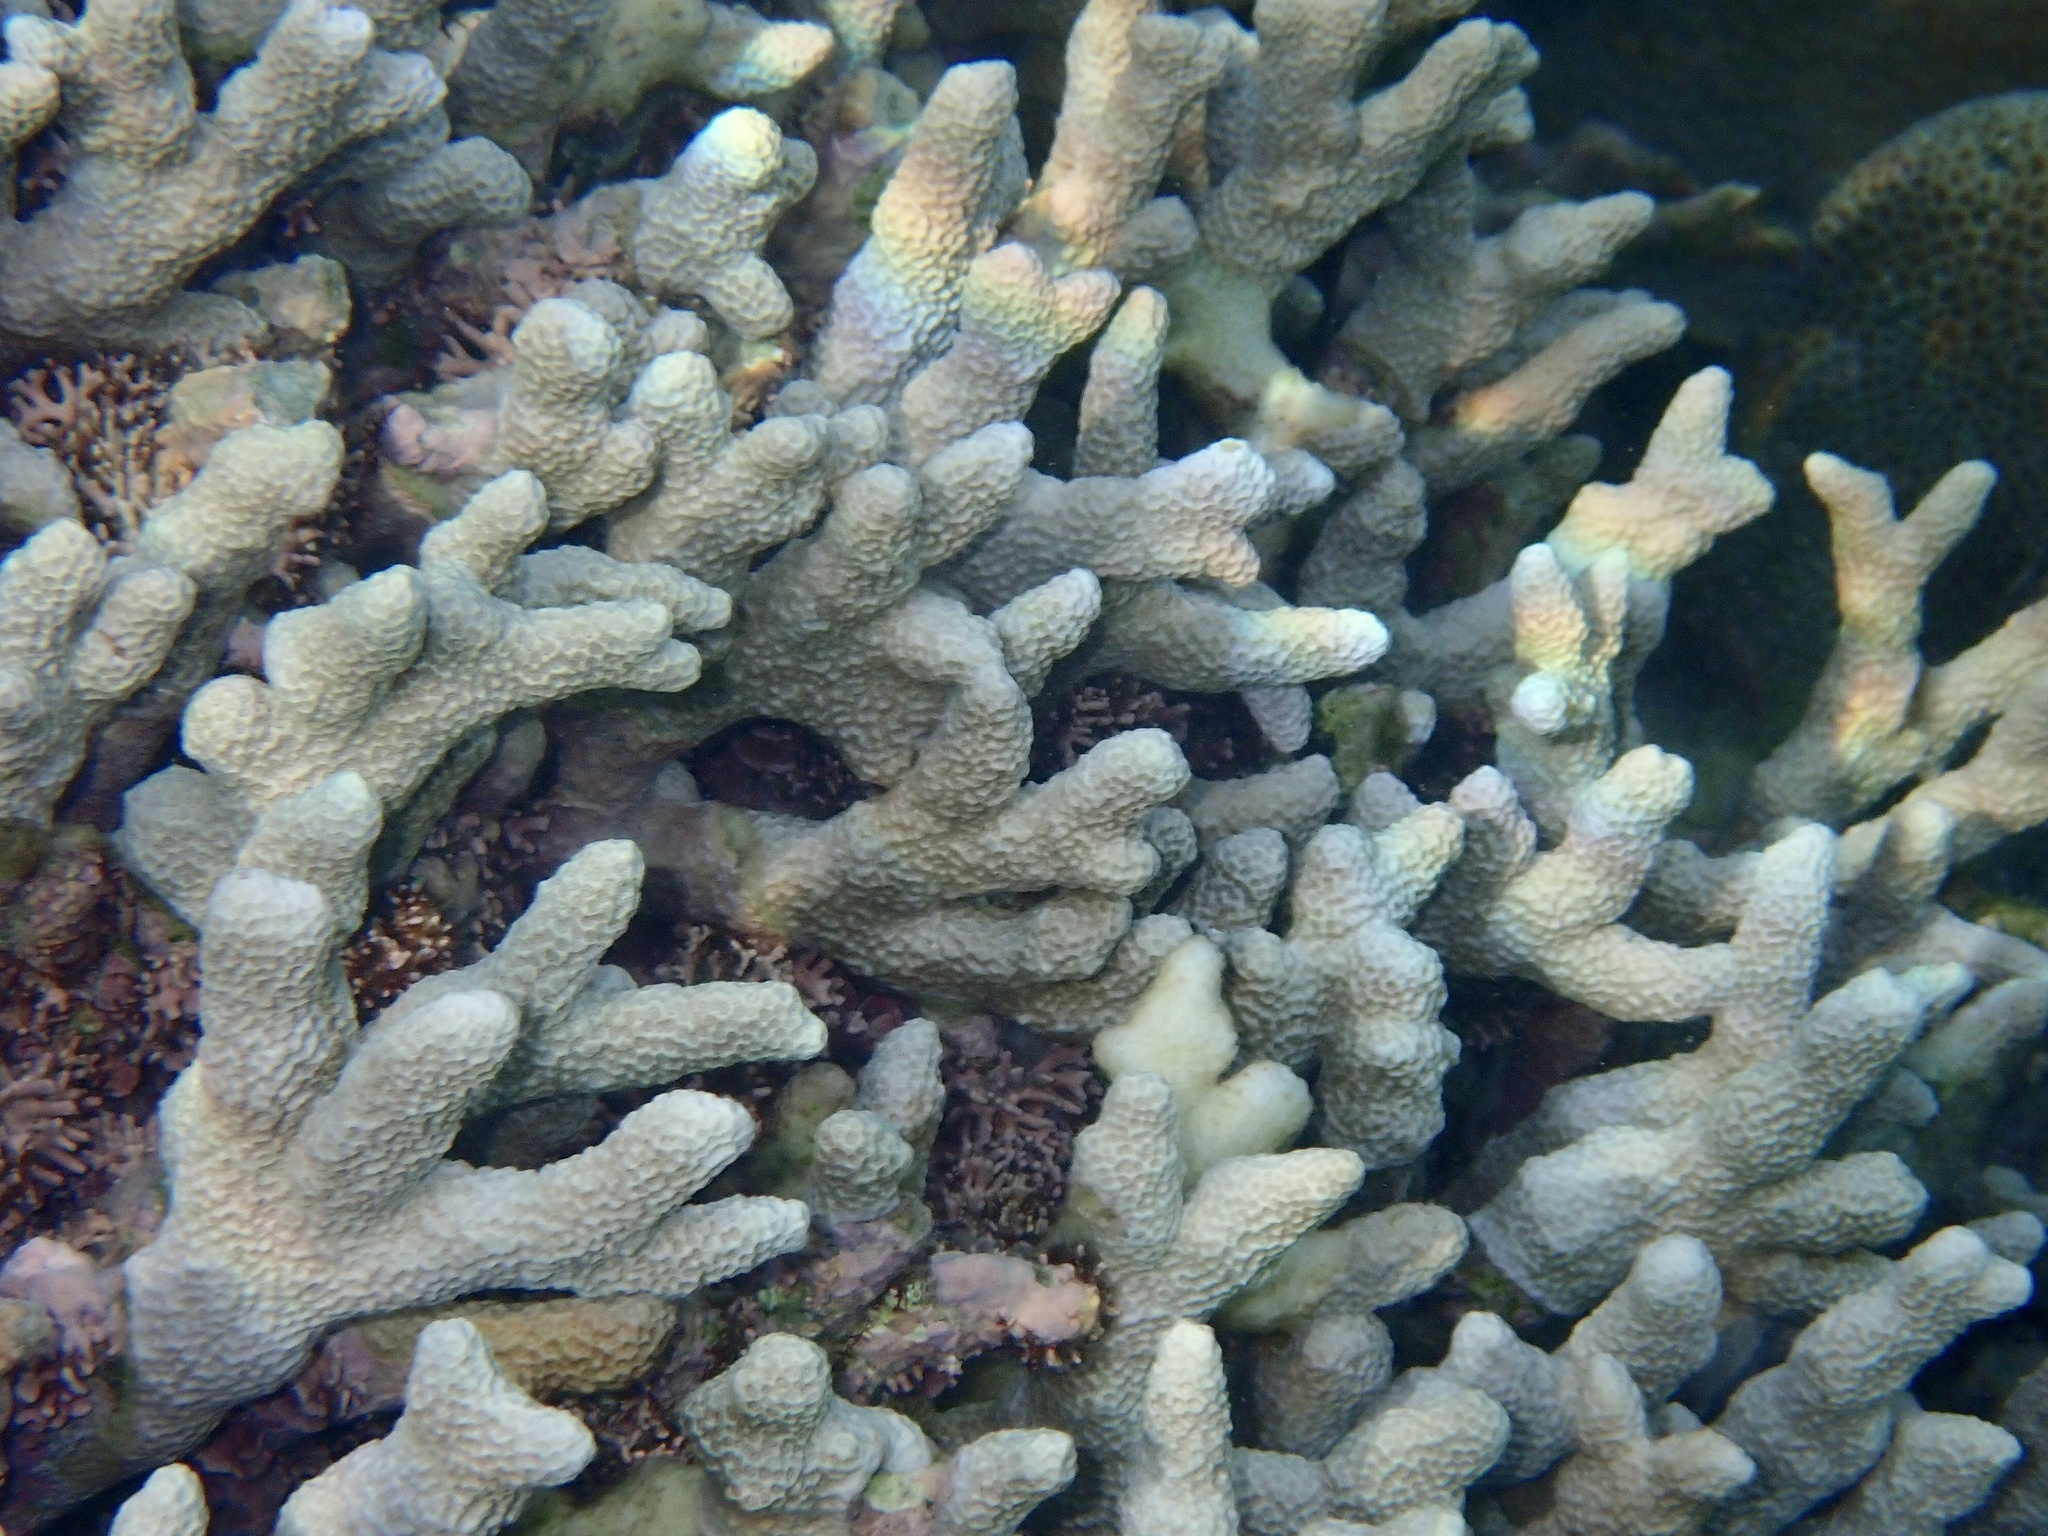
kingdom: Animalia
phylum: Cnidaria
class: Anthozoa
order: Scleractinia
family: Poritidae
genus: Porites
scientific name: Porites tuberculosus
